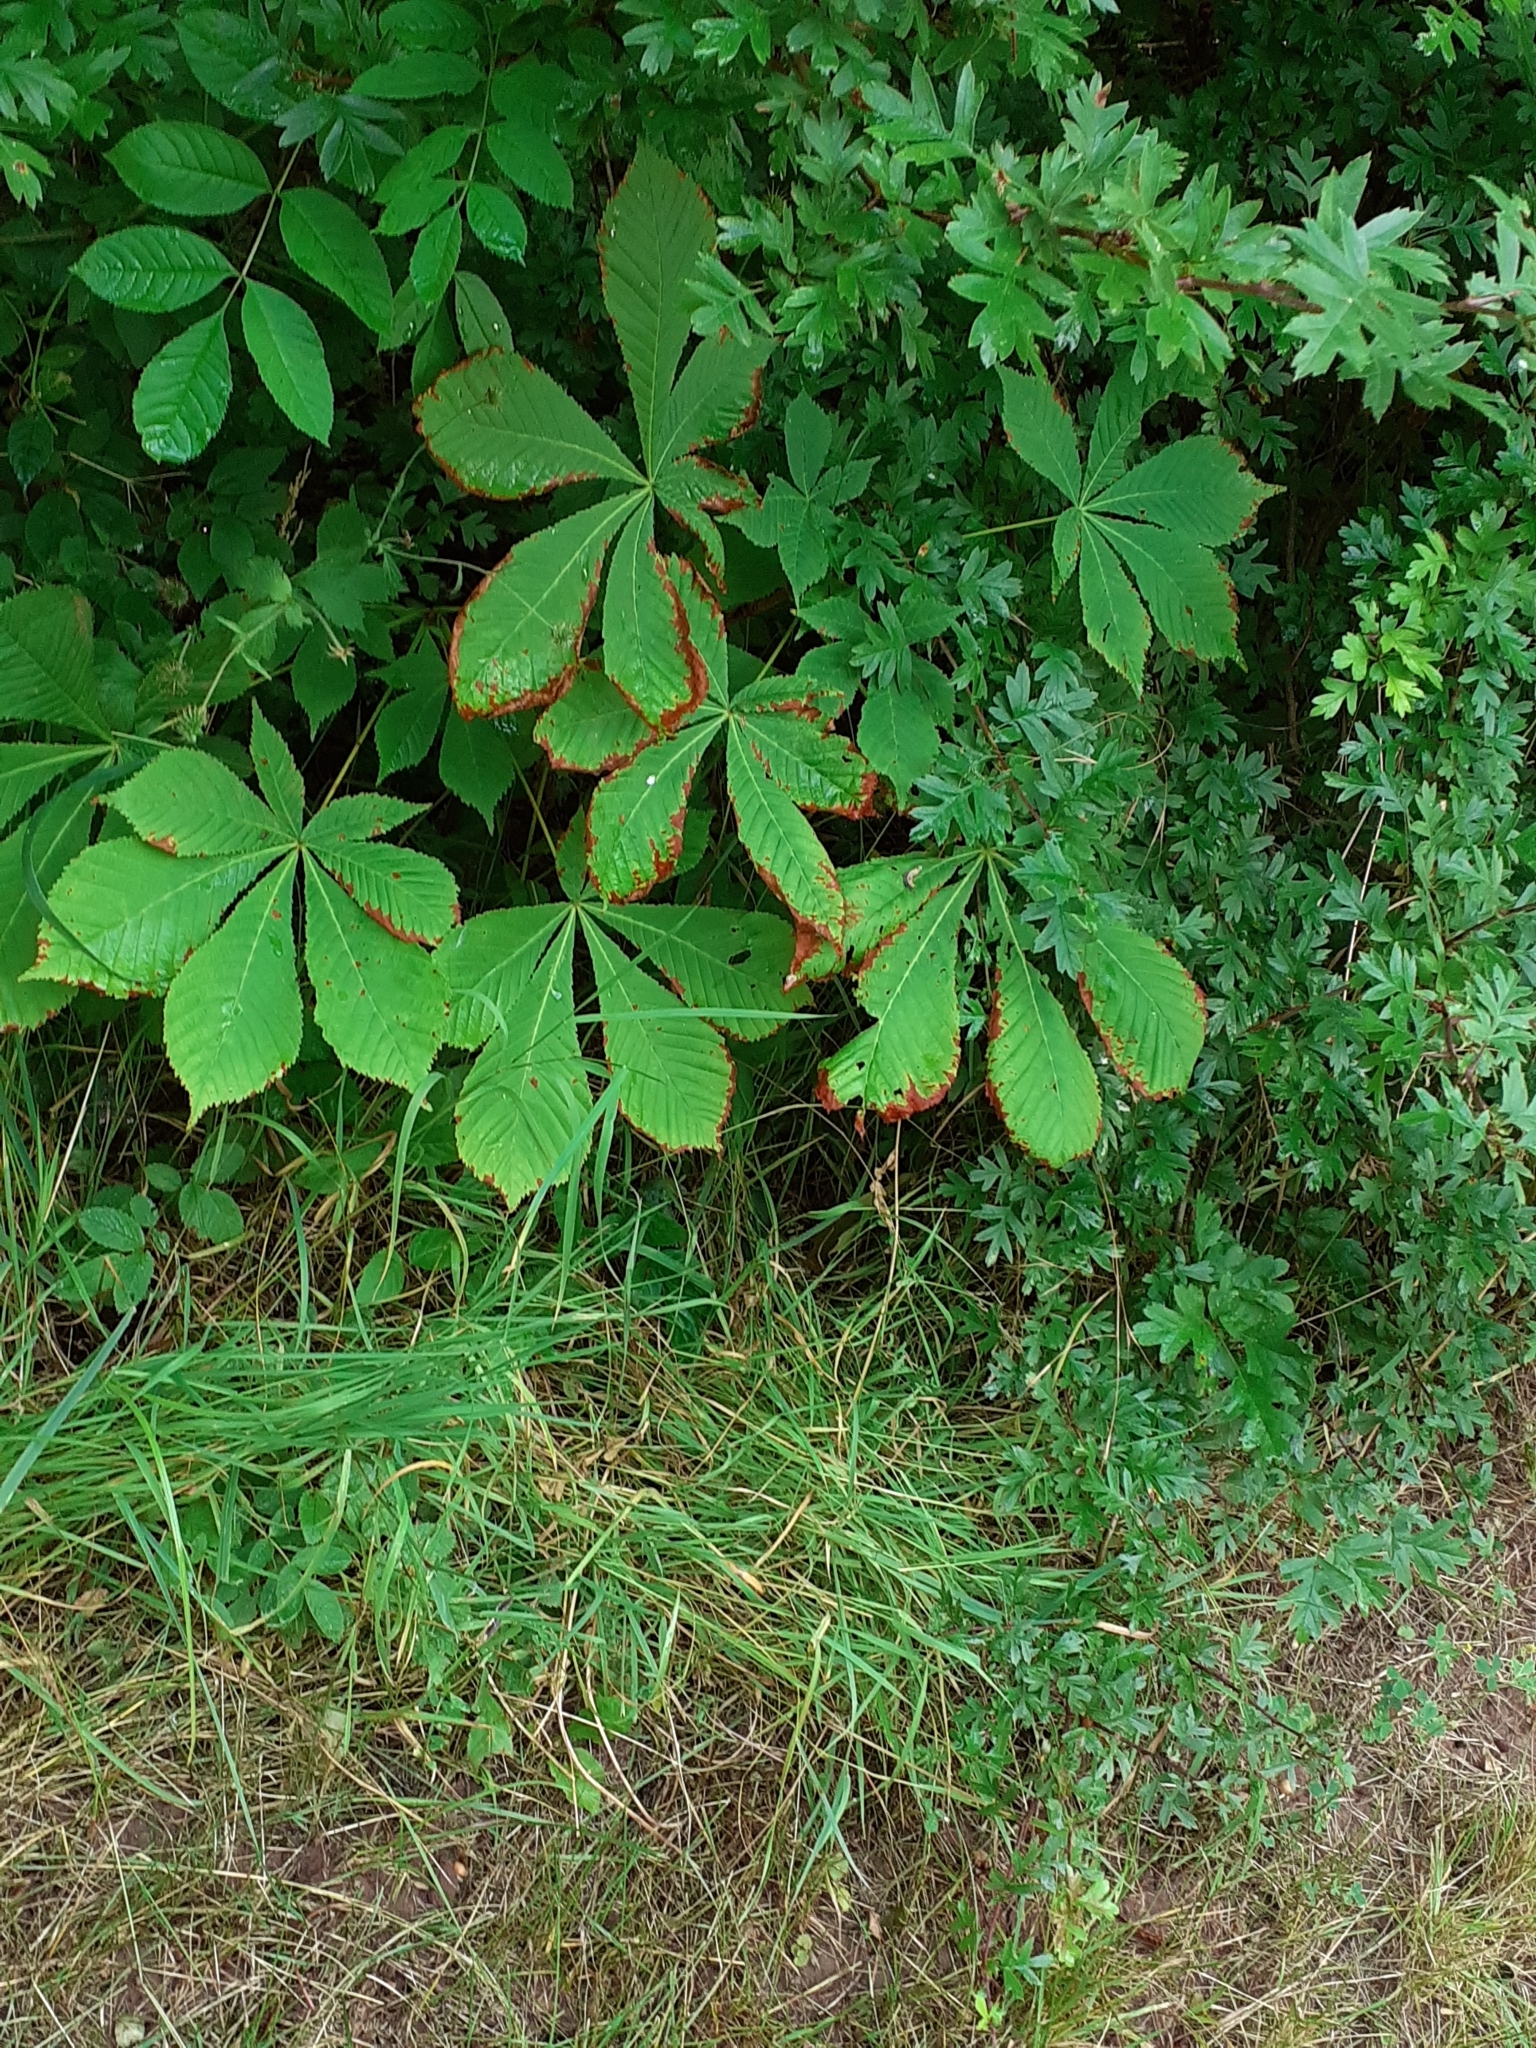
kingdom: Plantae
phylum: Tracheophyta
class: Magnoliopsida
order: Sapindales
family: Sapindaceae
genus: Aesculus
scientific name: Aesculus hippocastanum
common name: Horse-chestnut
